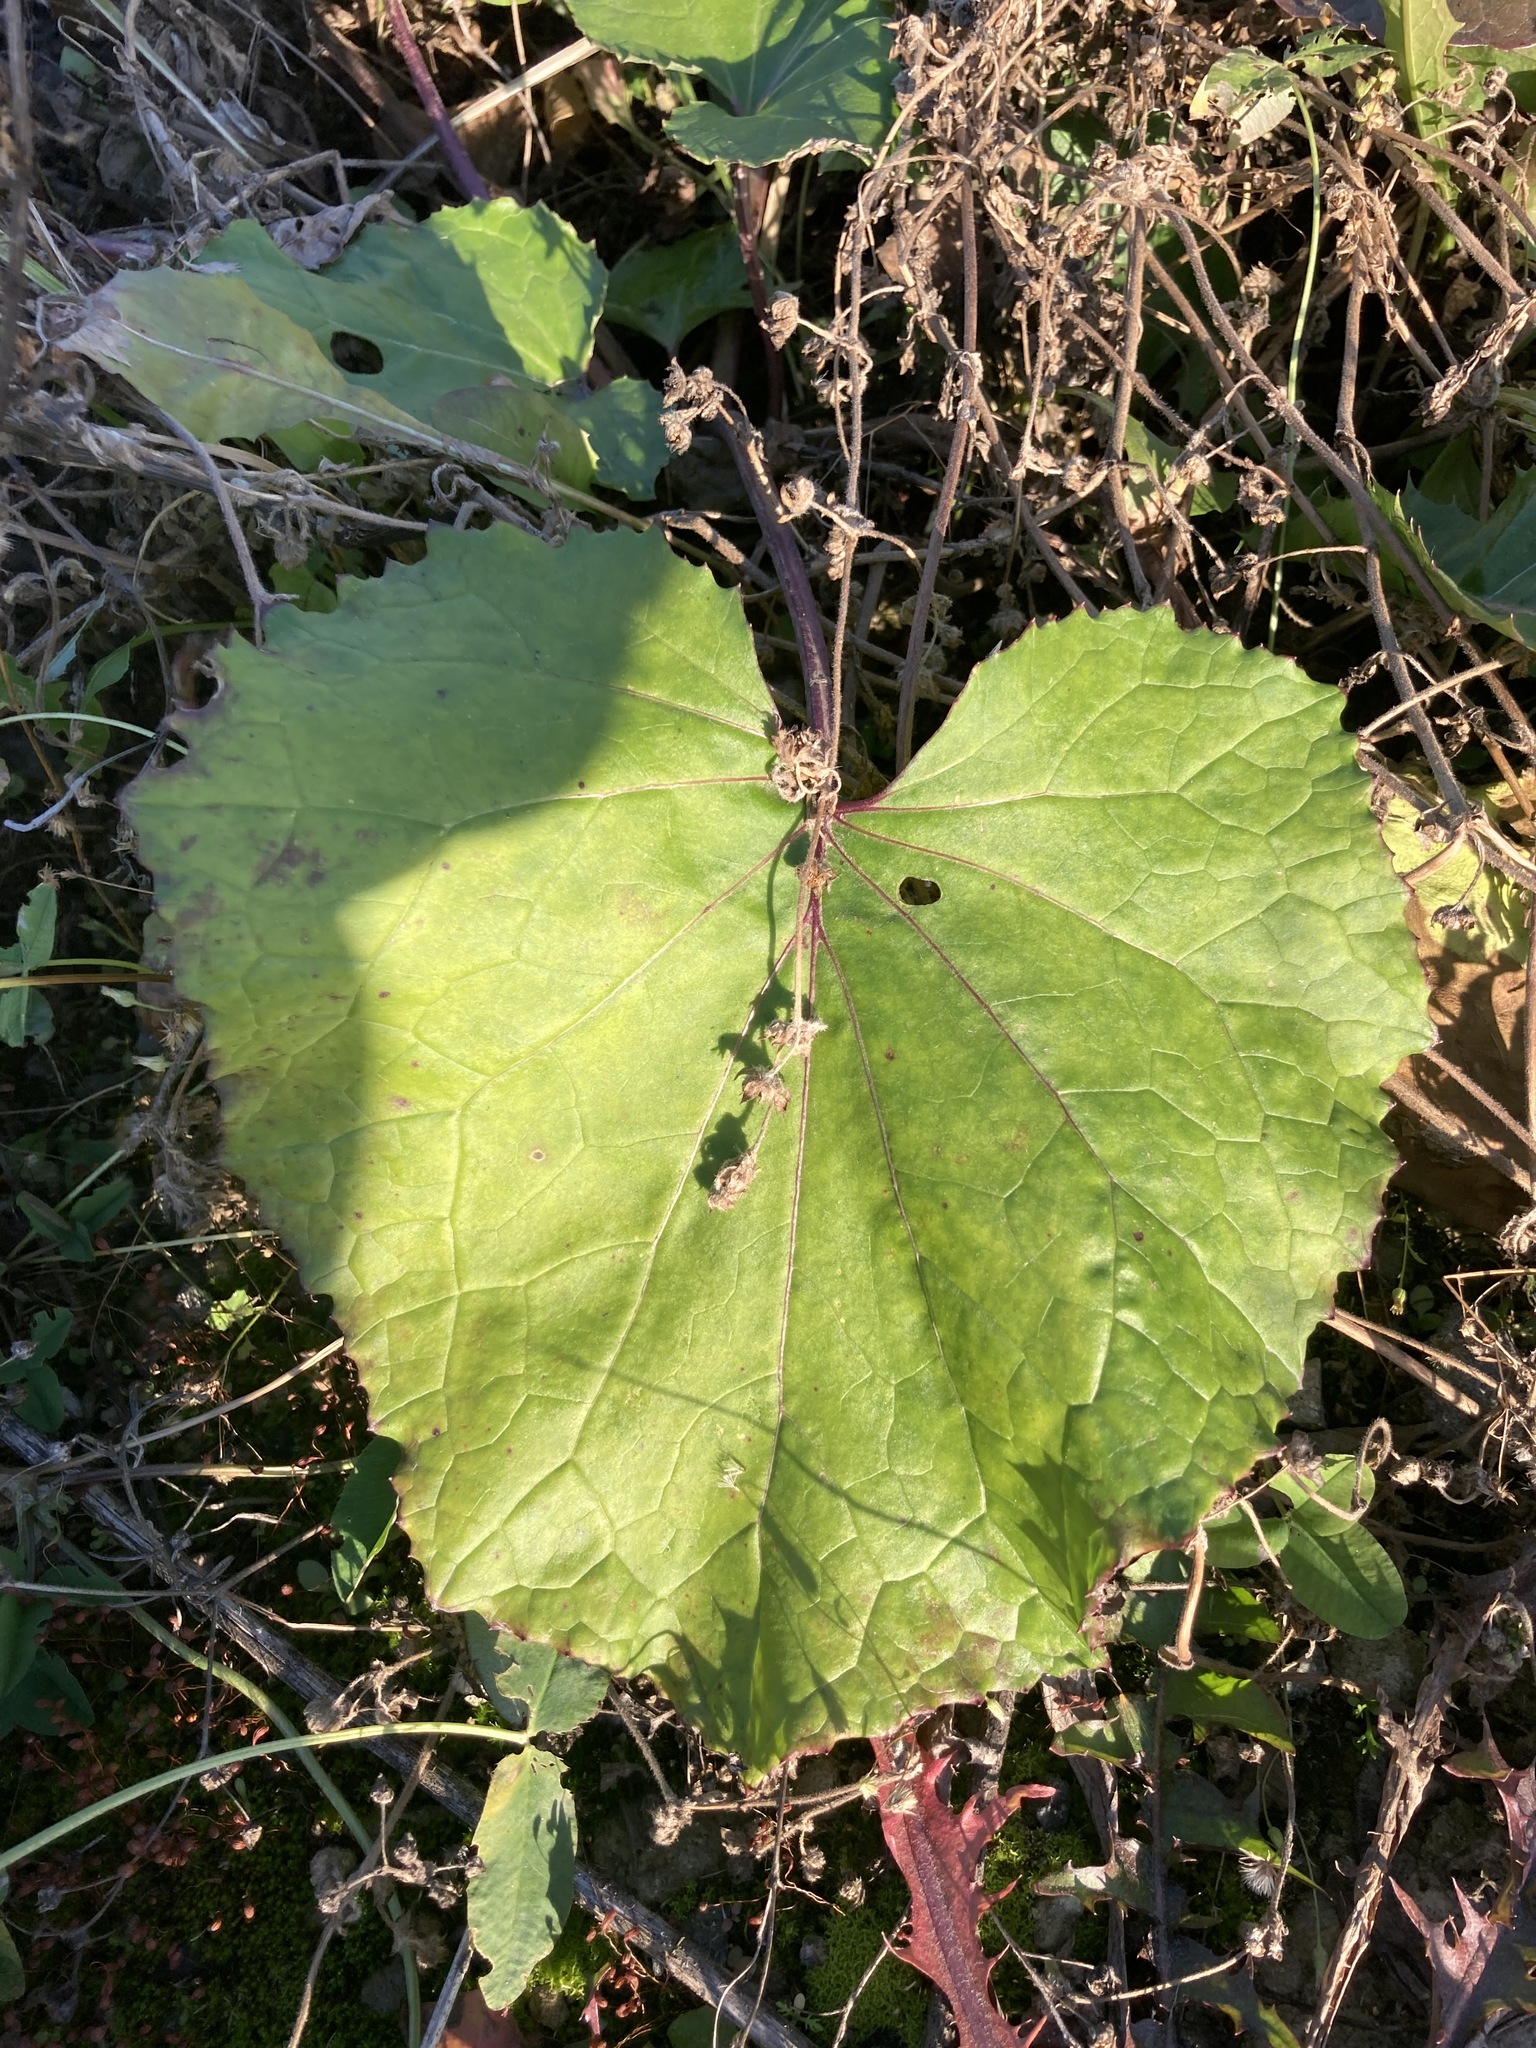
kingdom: Plantae
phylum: Tracheophyta
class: Magnoliopsida
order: Asterales
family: Asteraceae
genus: Tussilago
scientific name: Tussilago farfara
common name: Coltsfoot
